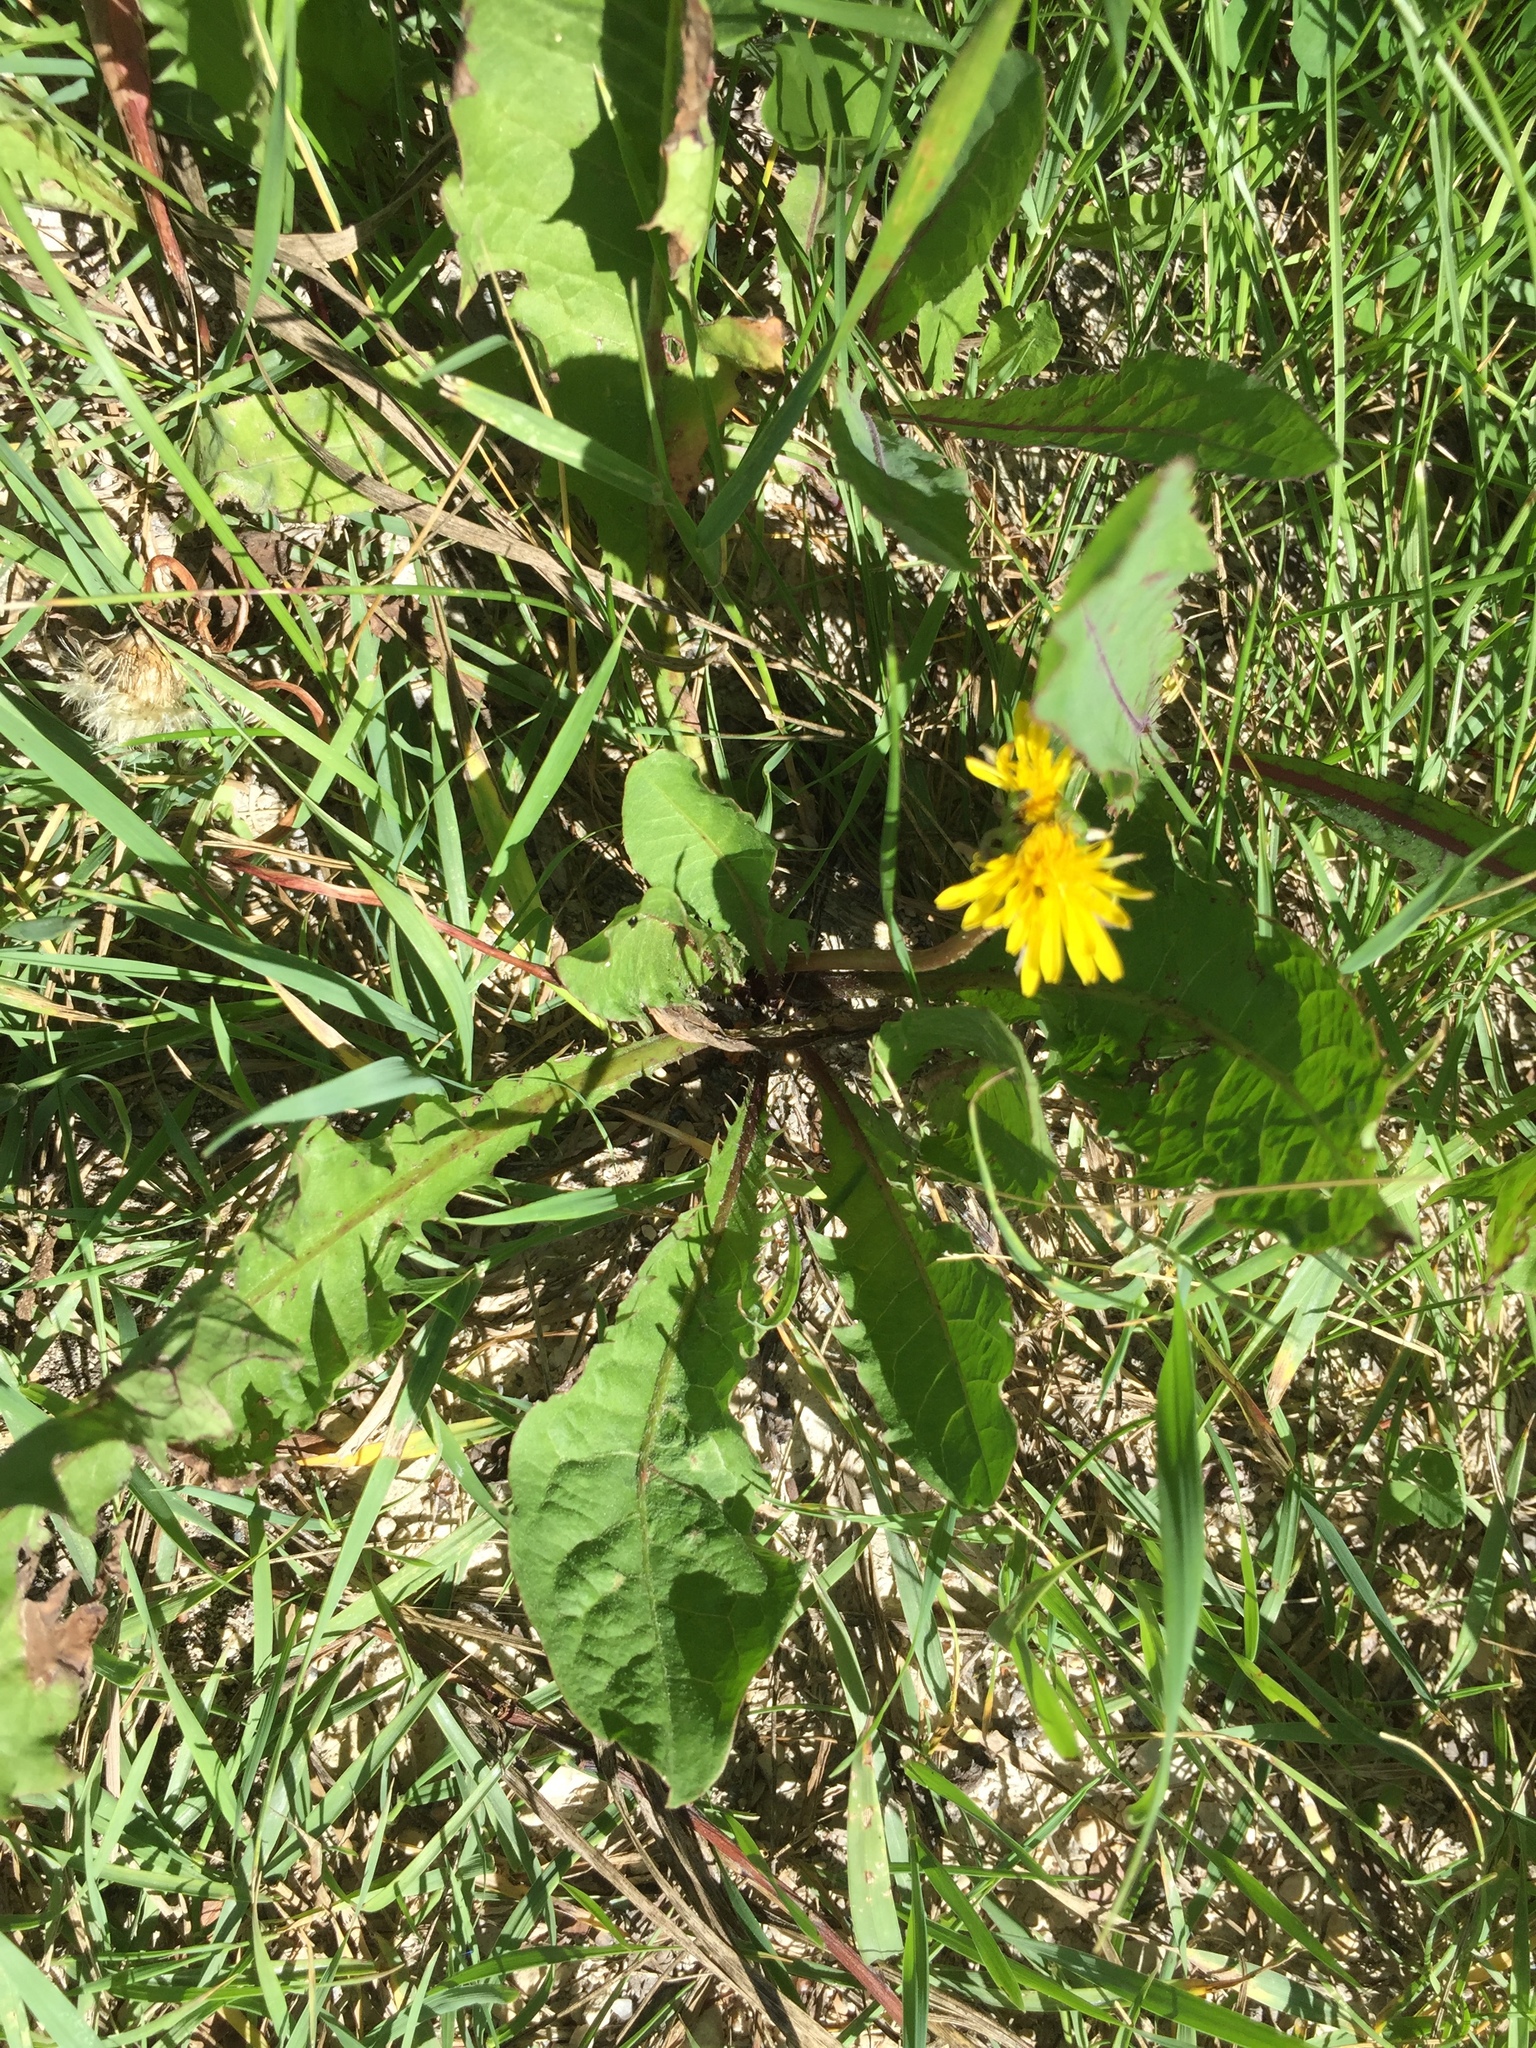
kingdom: Plantae
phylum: Tracheophyta
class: Magnoliopsida
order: Asterales
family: Asteraceae
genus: Taraxacum
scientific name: Taraxacum officinale
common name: Common dandelion
